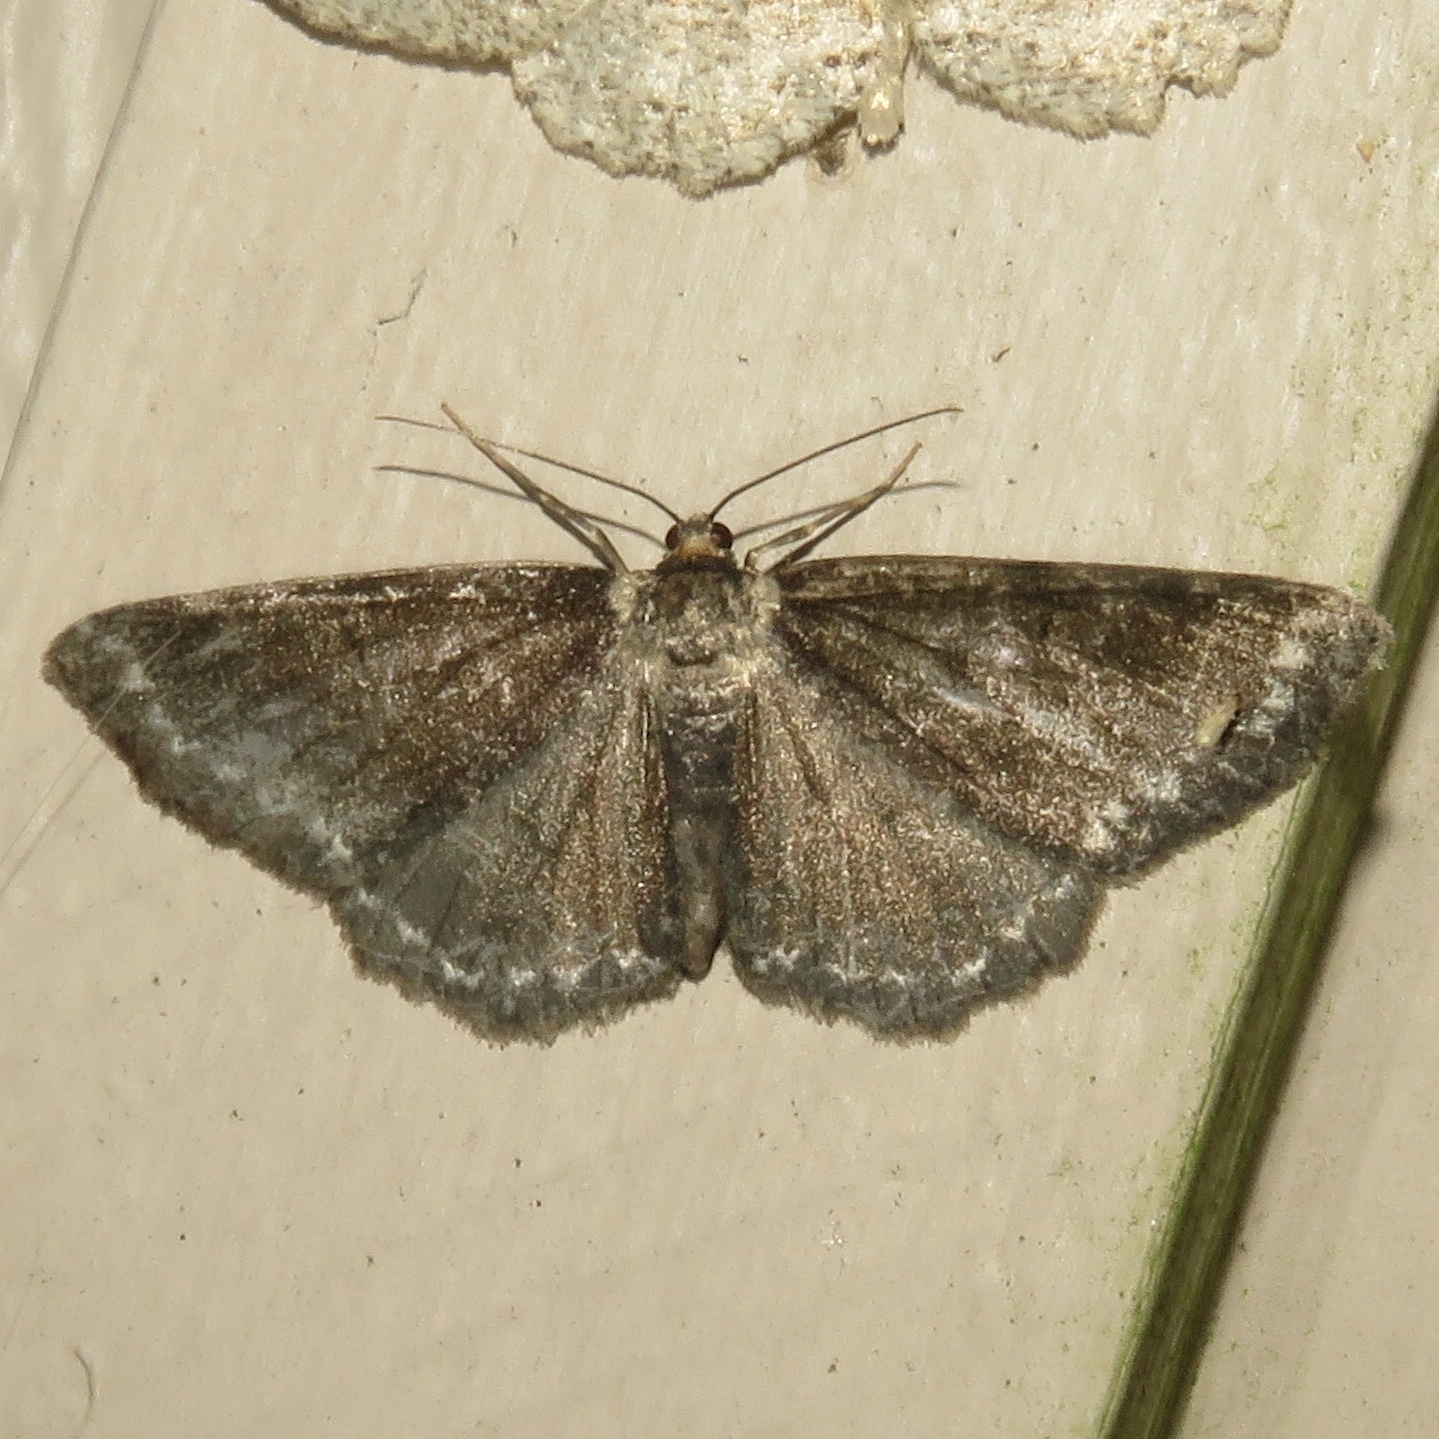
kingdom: Animalia
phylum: Arthropoda
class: Insecta
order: Lepidoptera
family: Geometridae
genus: Ectropis
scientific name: Ectropis crepuscularia
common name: Engrailed
